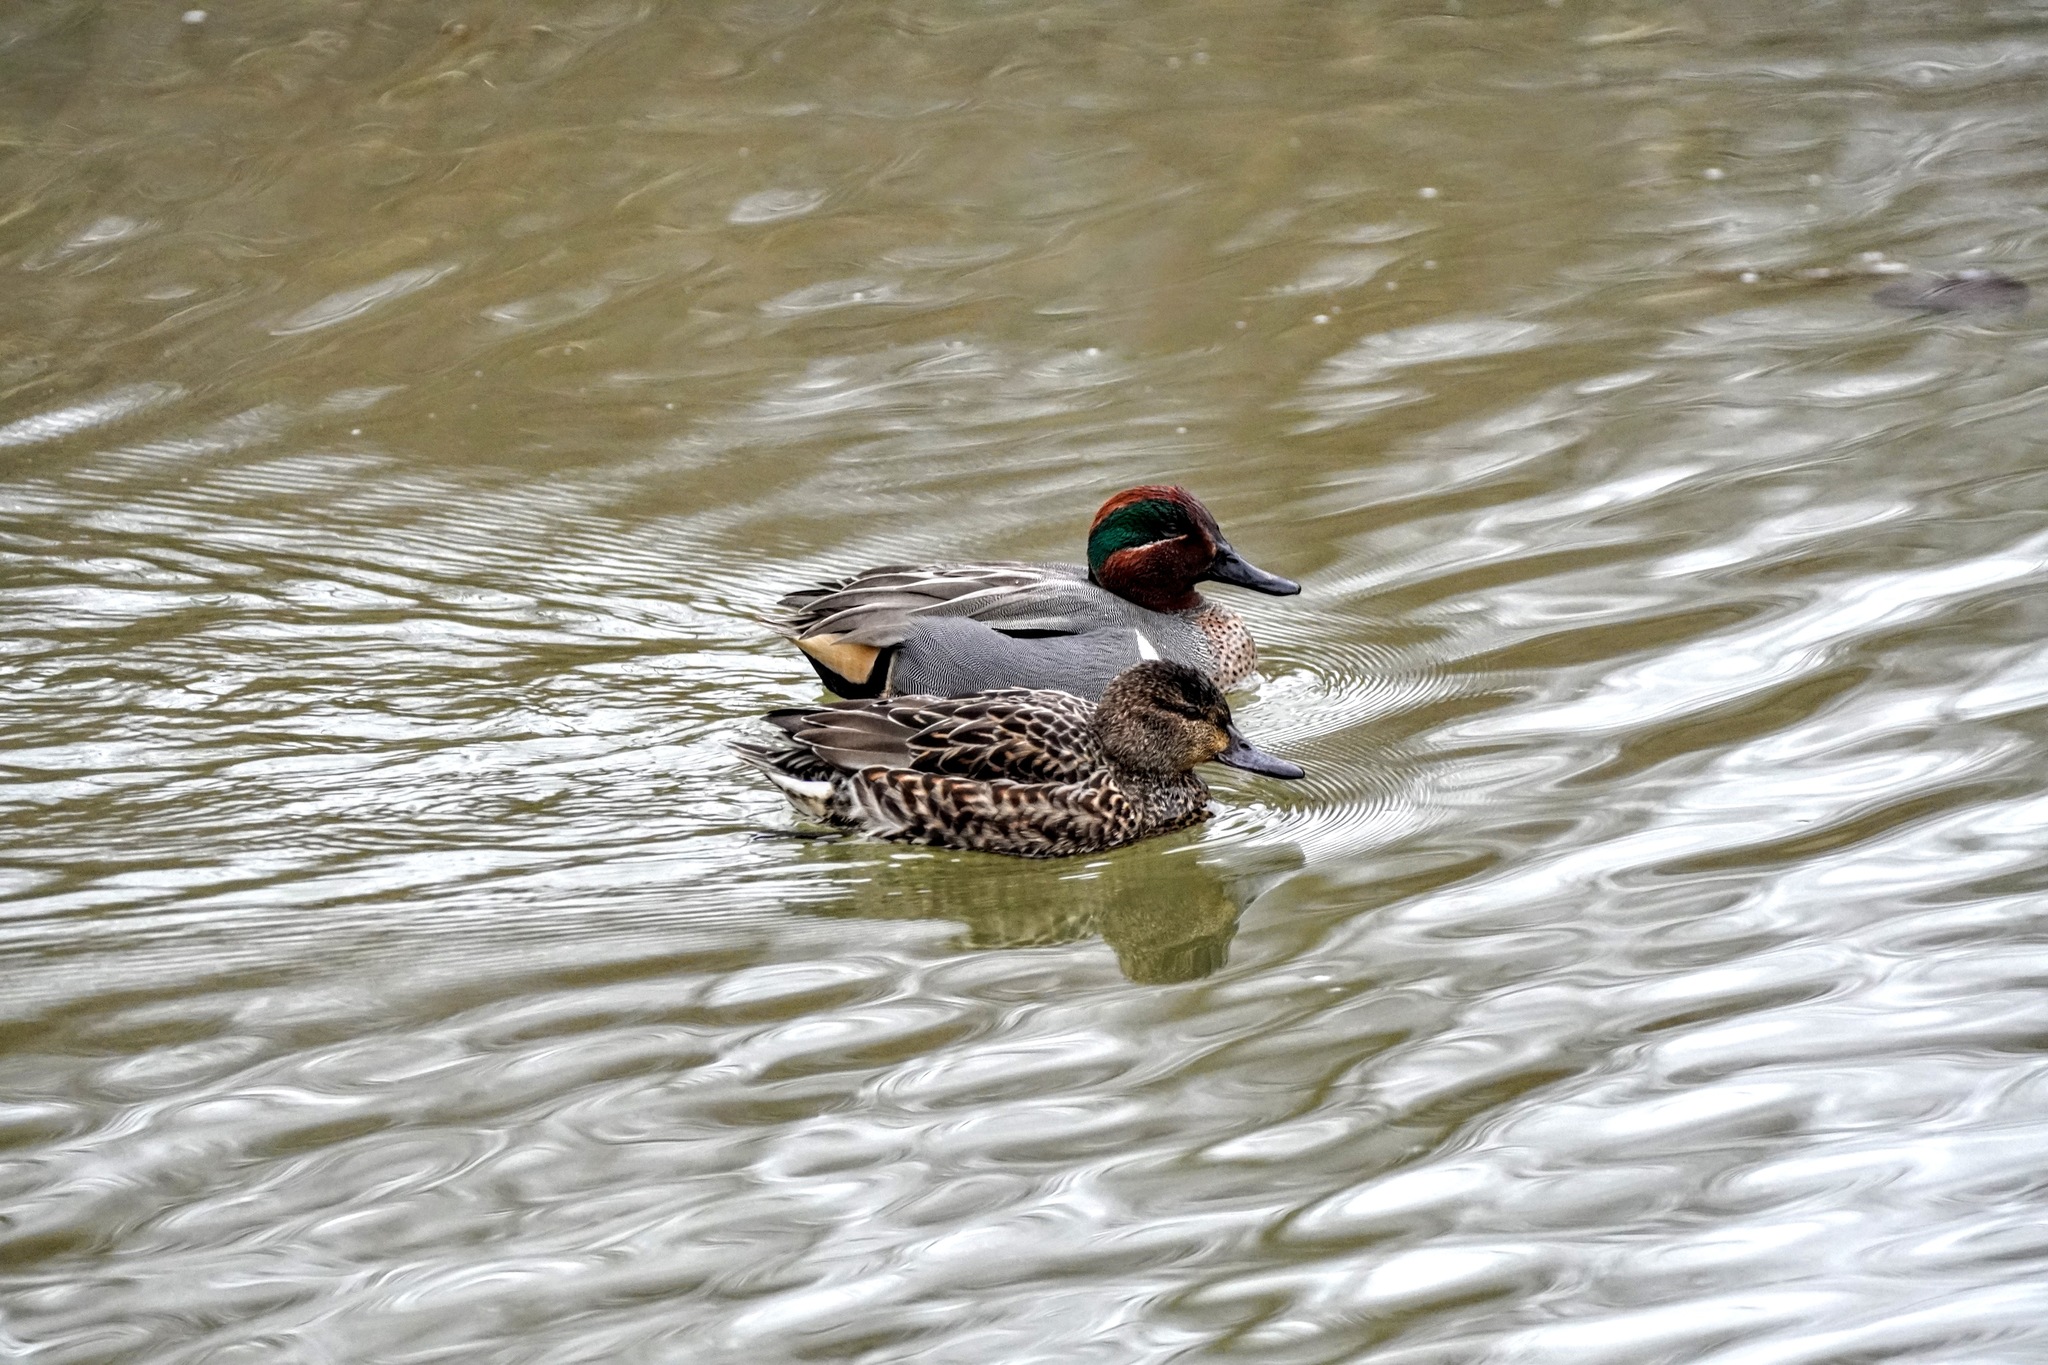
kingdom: Animalia
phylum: Chordata
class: Aves
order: Anseriformes
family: Anatidae
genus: Anas
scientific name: Anas crecca
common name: Eurasian teal
